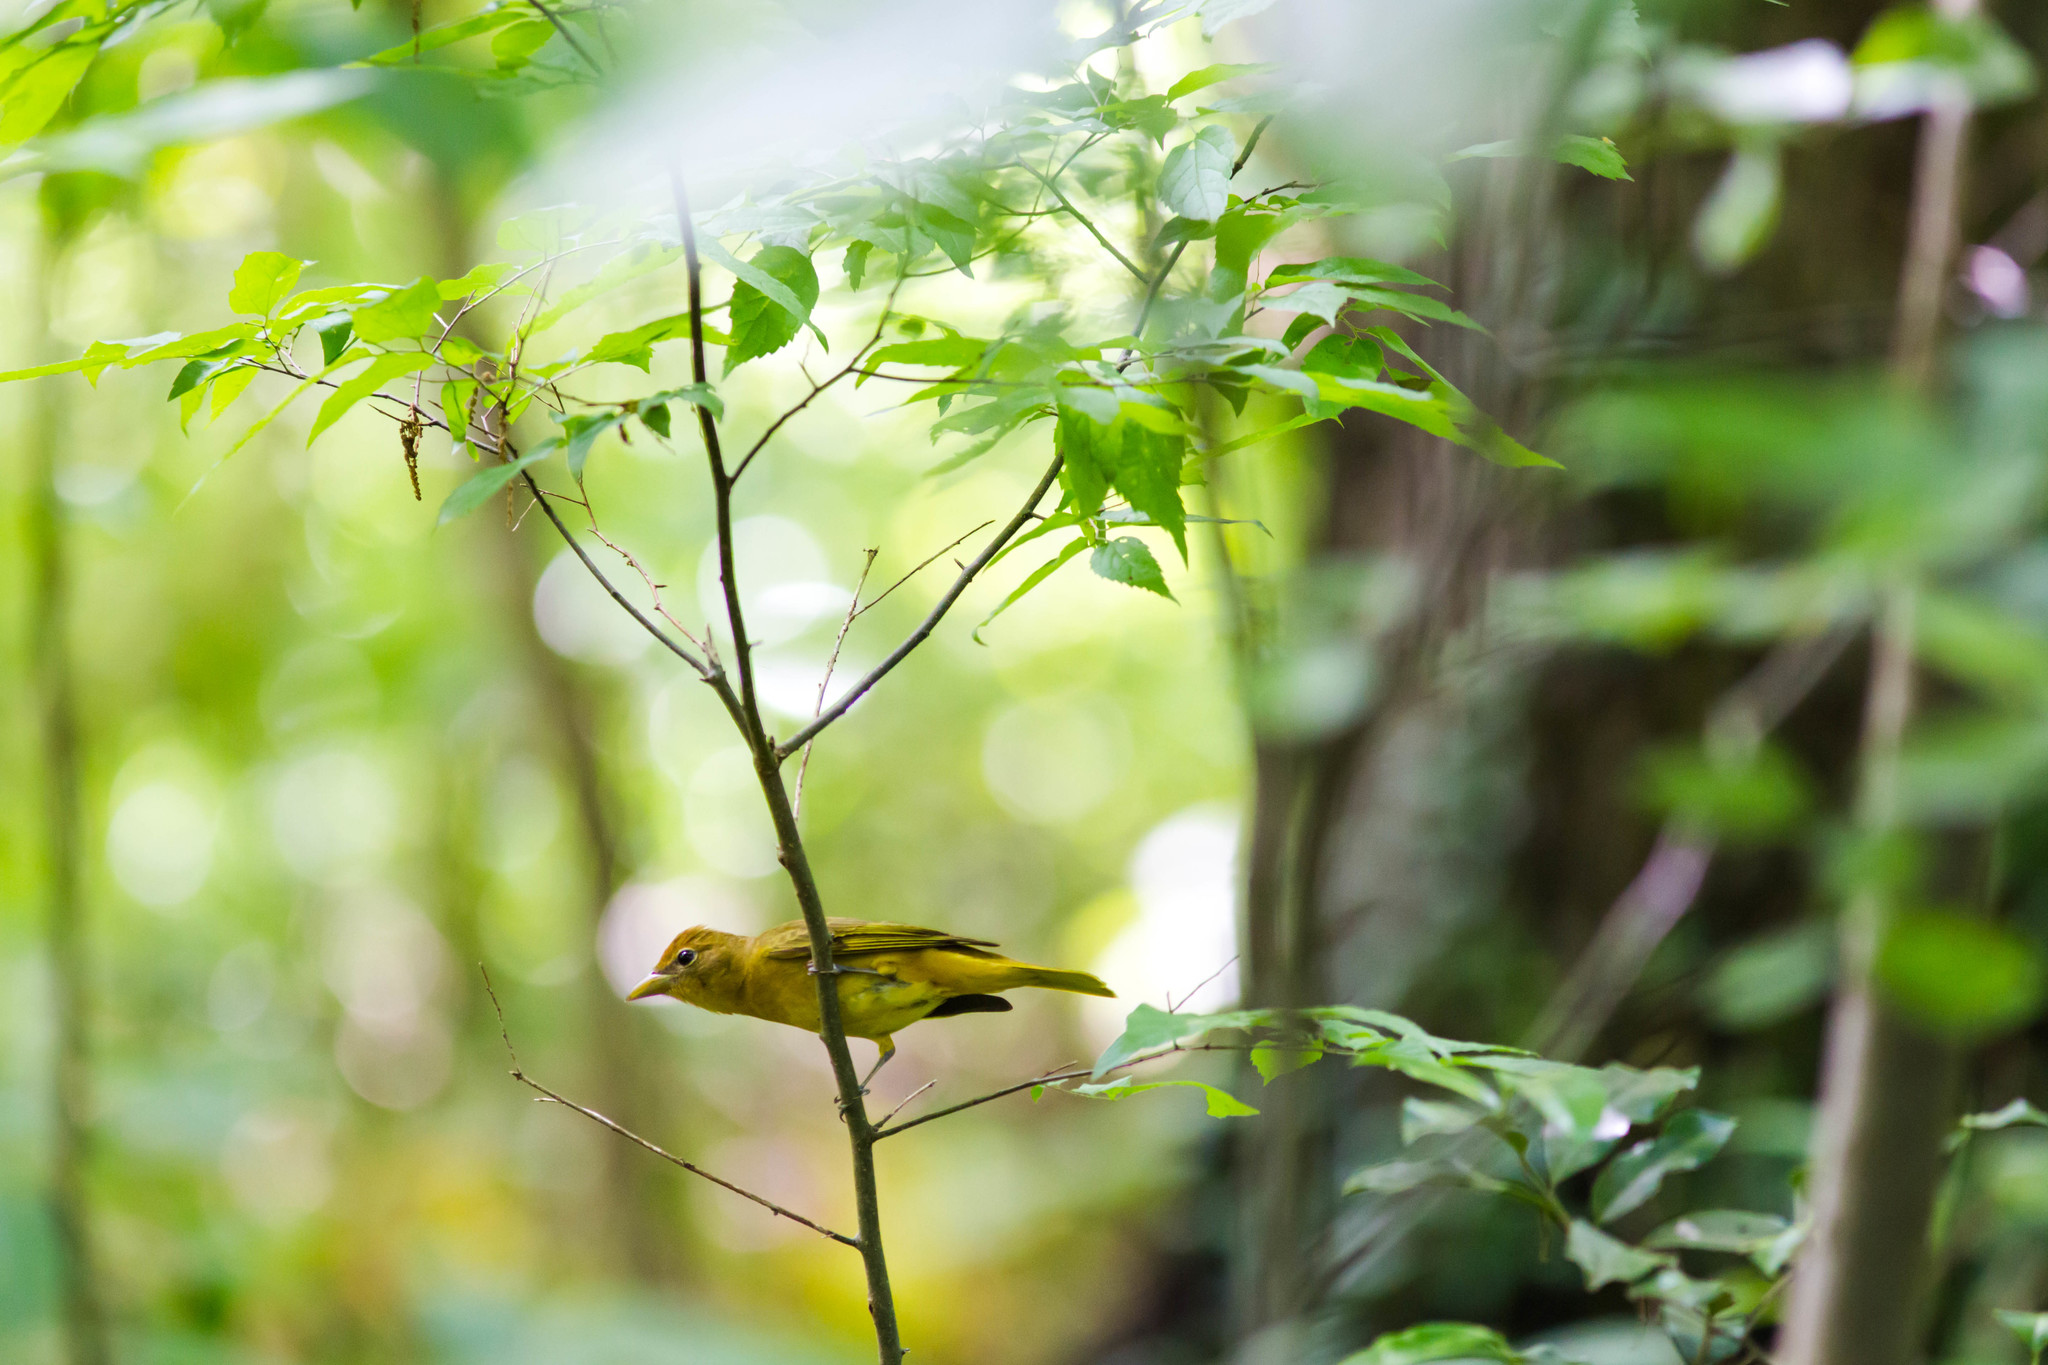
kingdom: Animalia
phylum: Chordata
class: Aves
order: Passeriformes
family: Cardinalidae
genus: Piranga
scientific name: Piranga rubra
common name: Summer tanager
